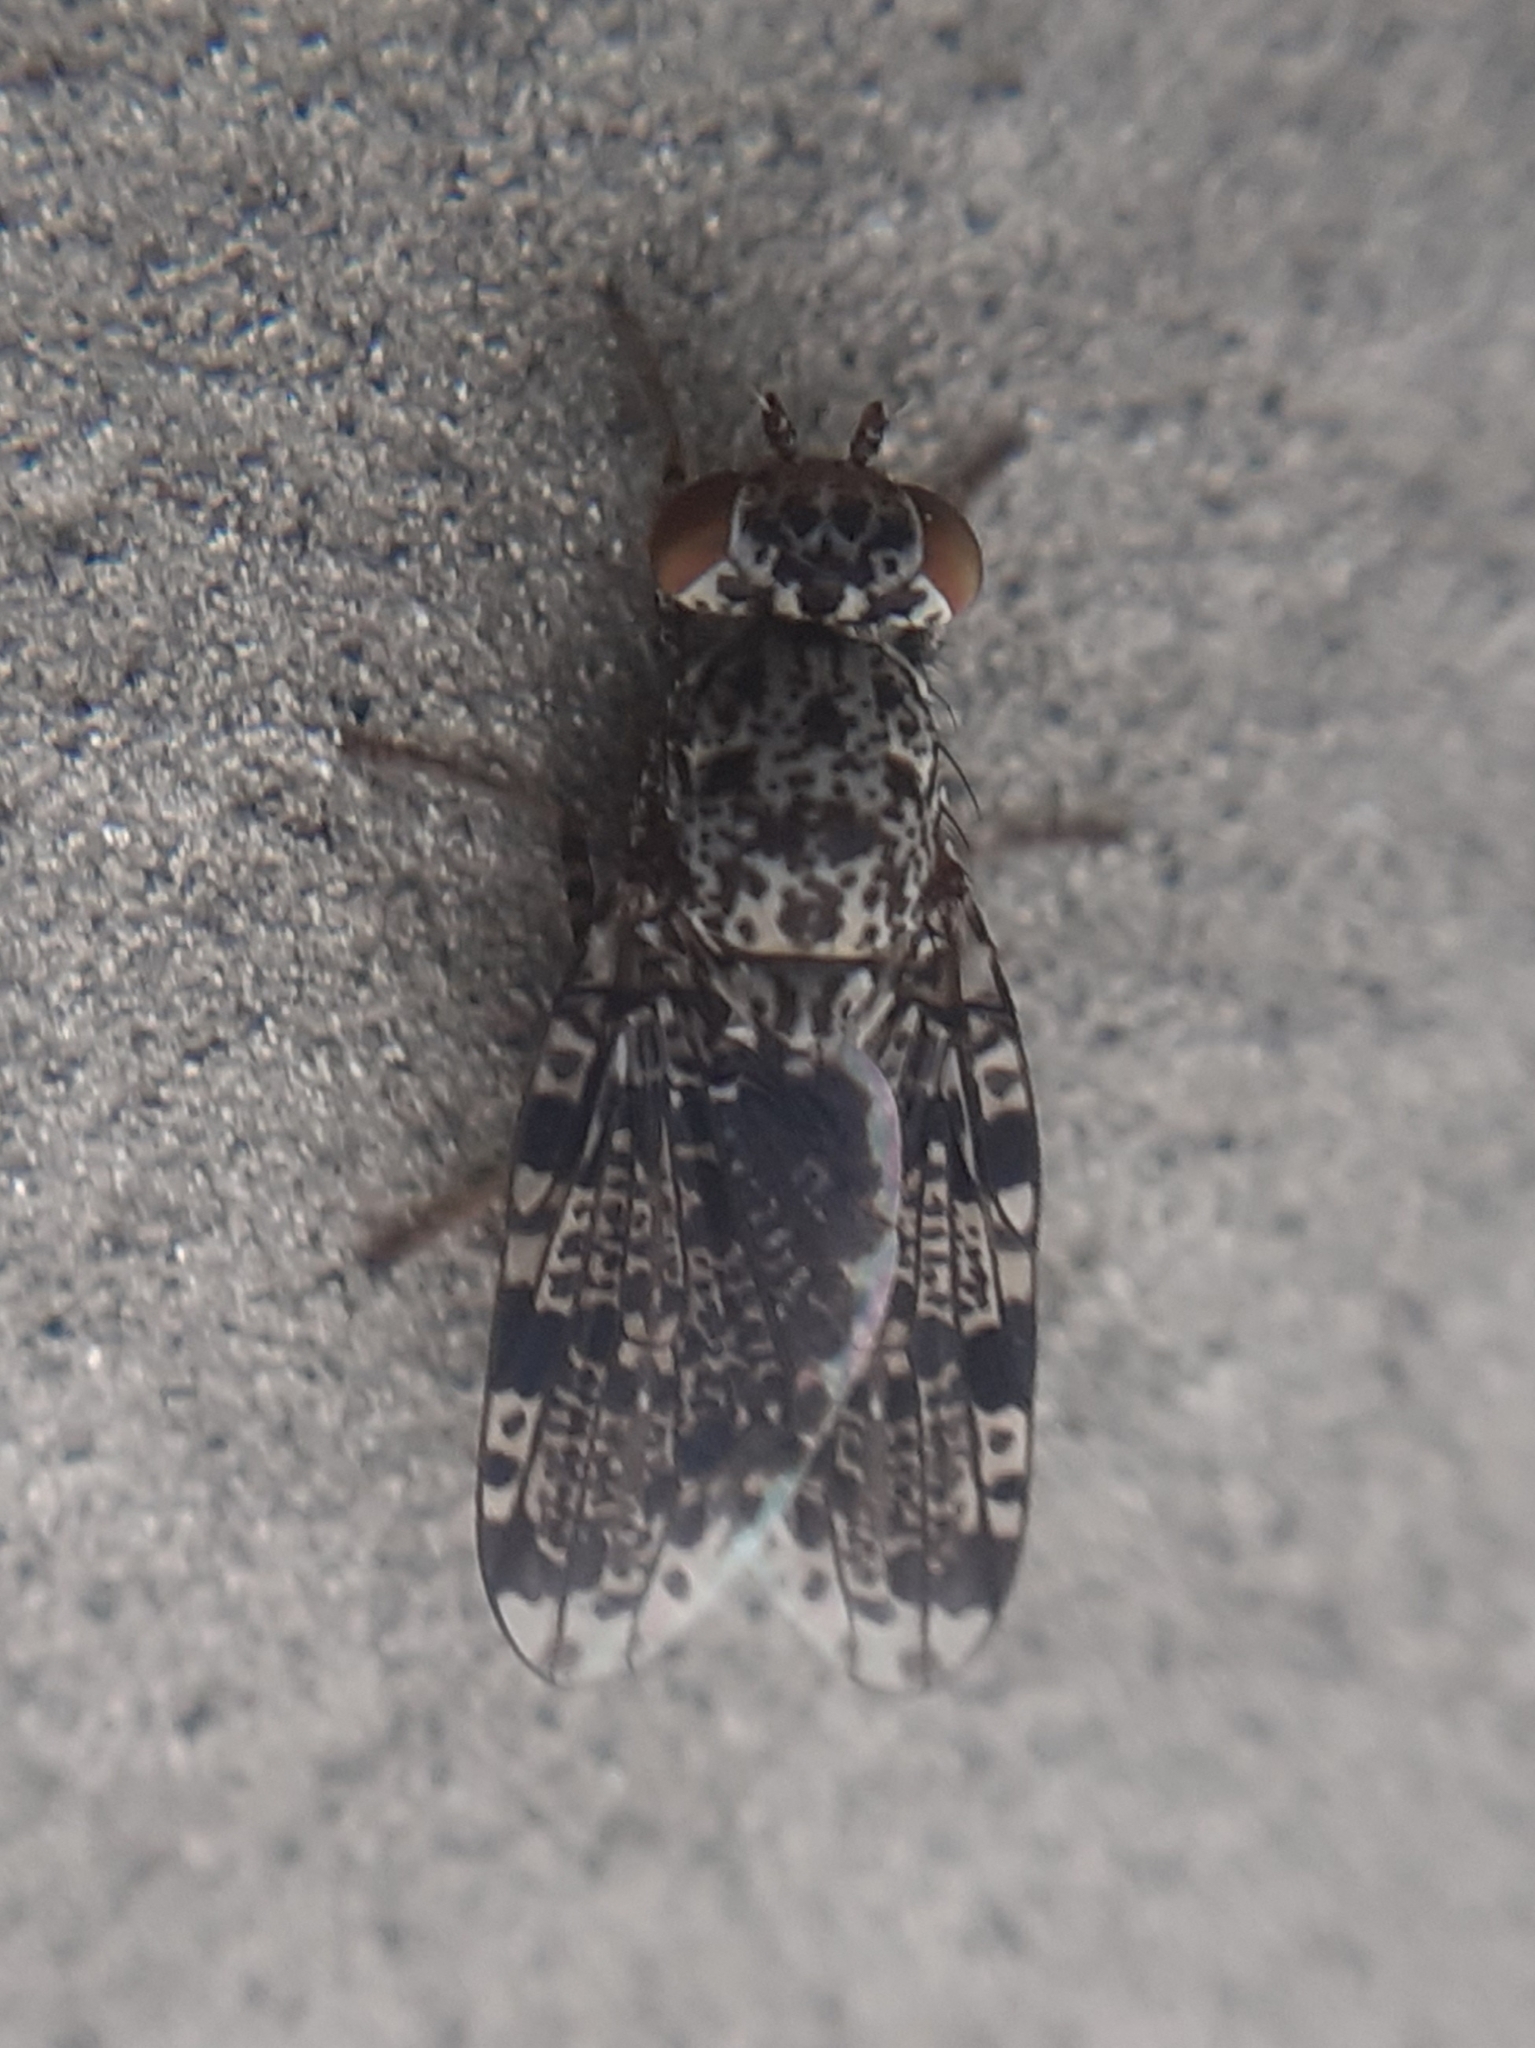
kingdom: Animalia
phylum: Arthropoda
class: Insecta
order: Diptera
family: Ulidiidae
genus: Callopistromyia
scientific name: Callopistromyia annulipes
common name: Peacock fly
